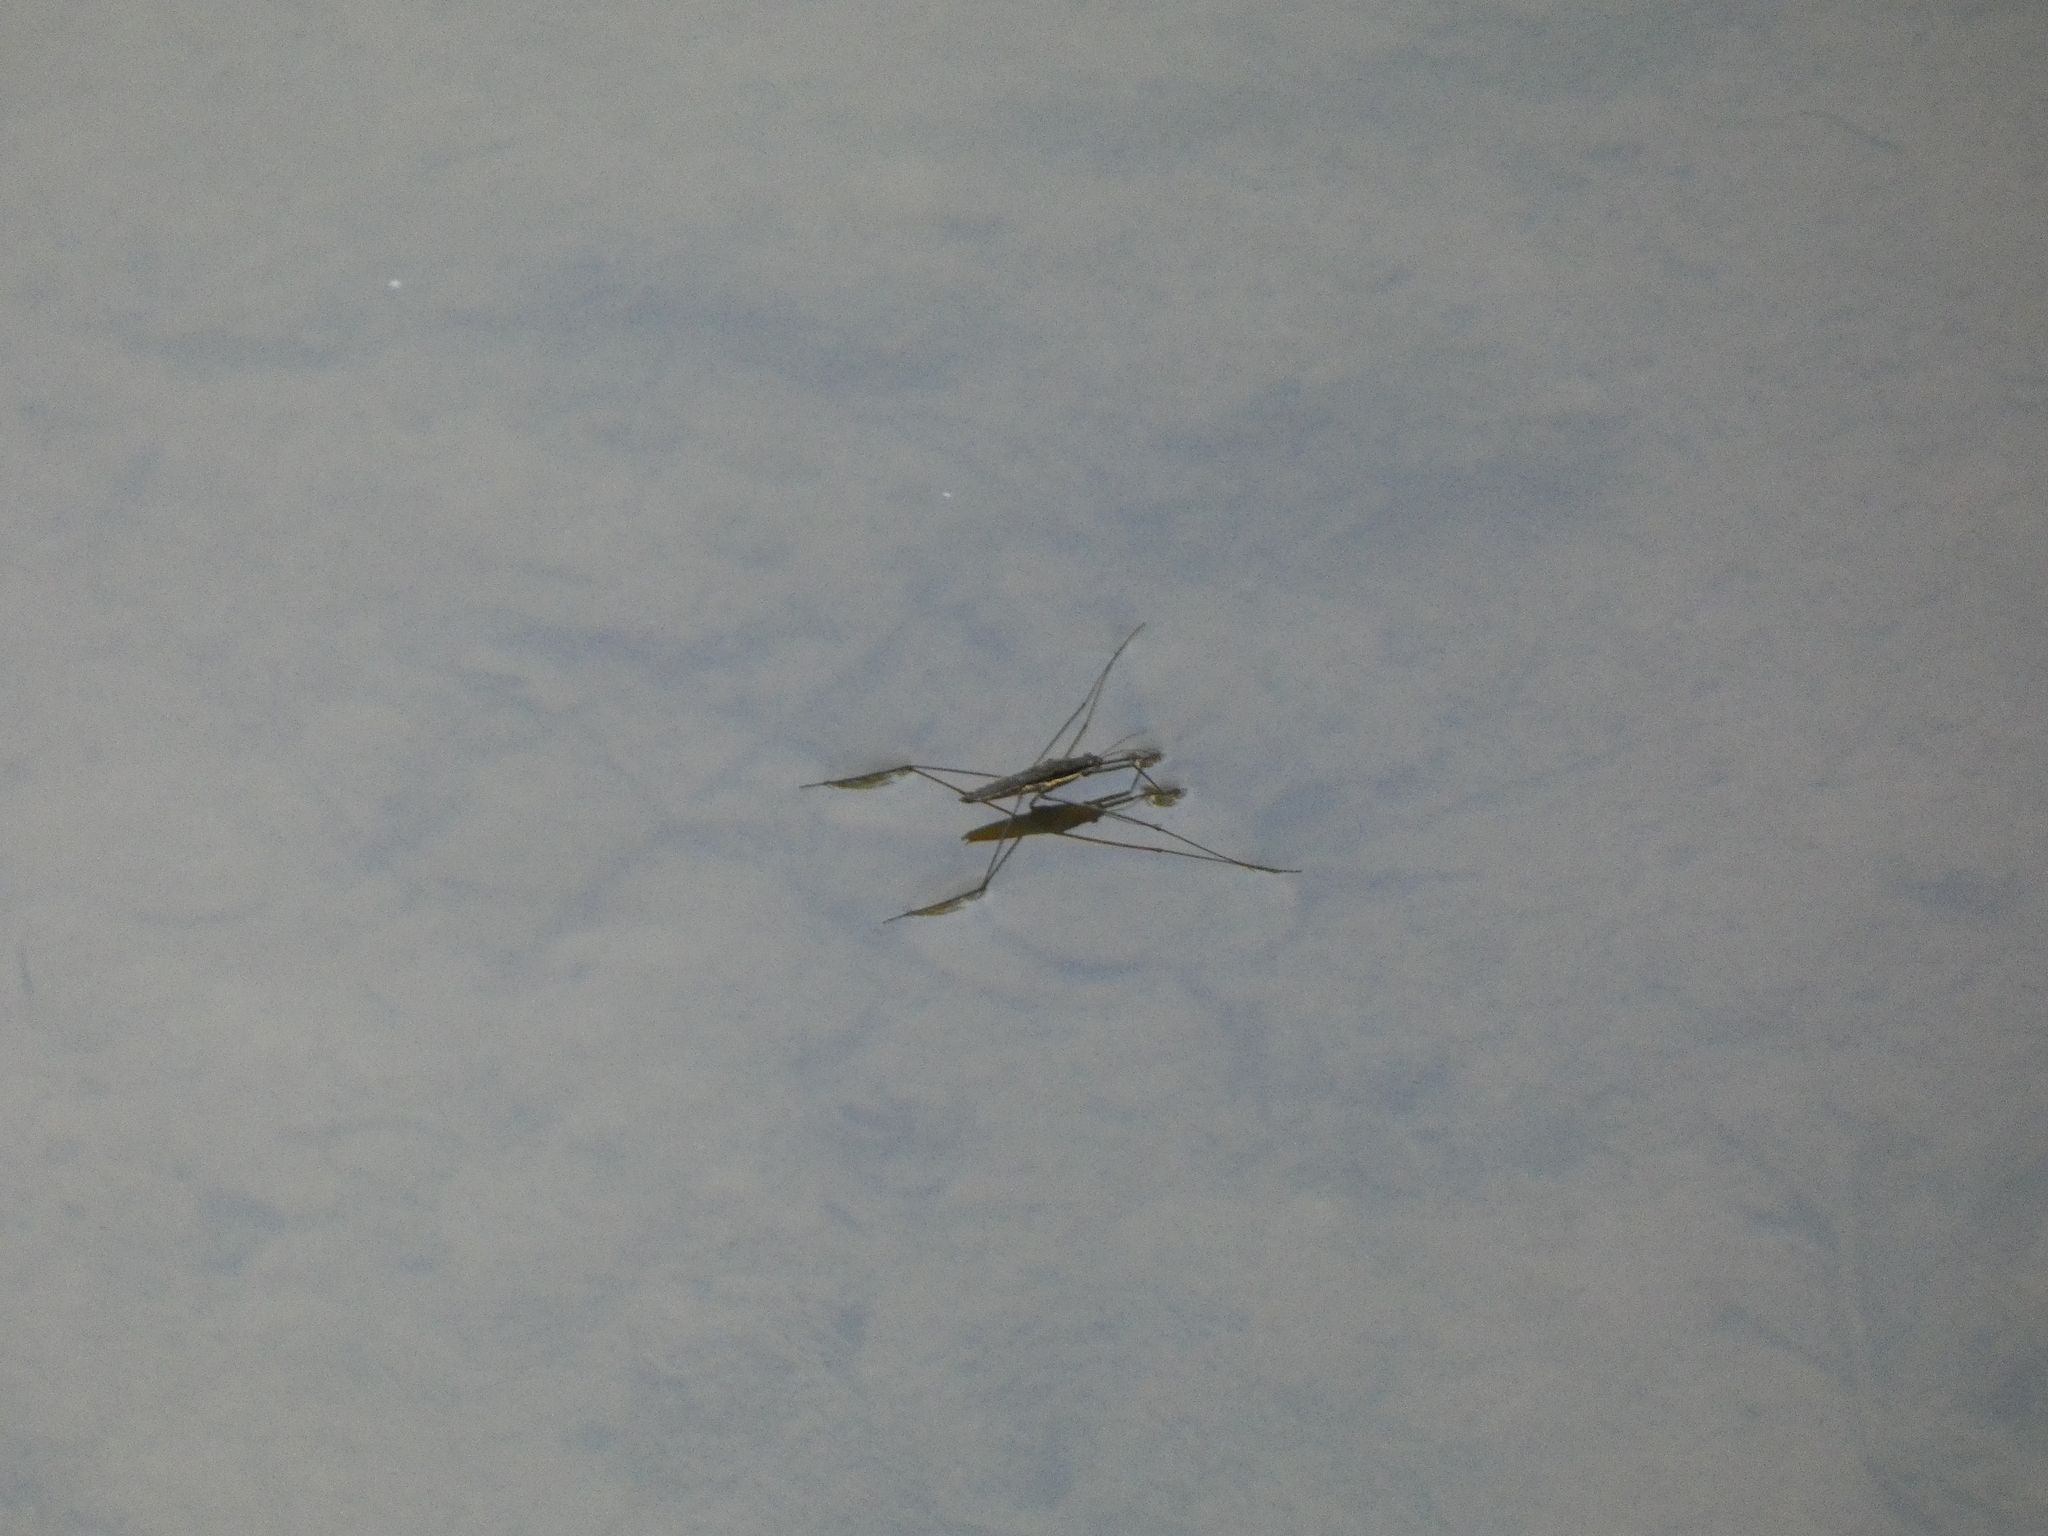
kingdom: Animalia
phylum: Arthropoda
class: Insecta
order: Hemiptera
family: Gerridae
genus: Aquarius
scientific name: Aquarius conformis
